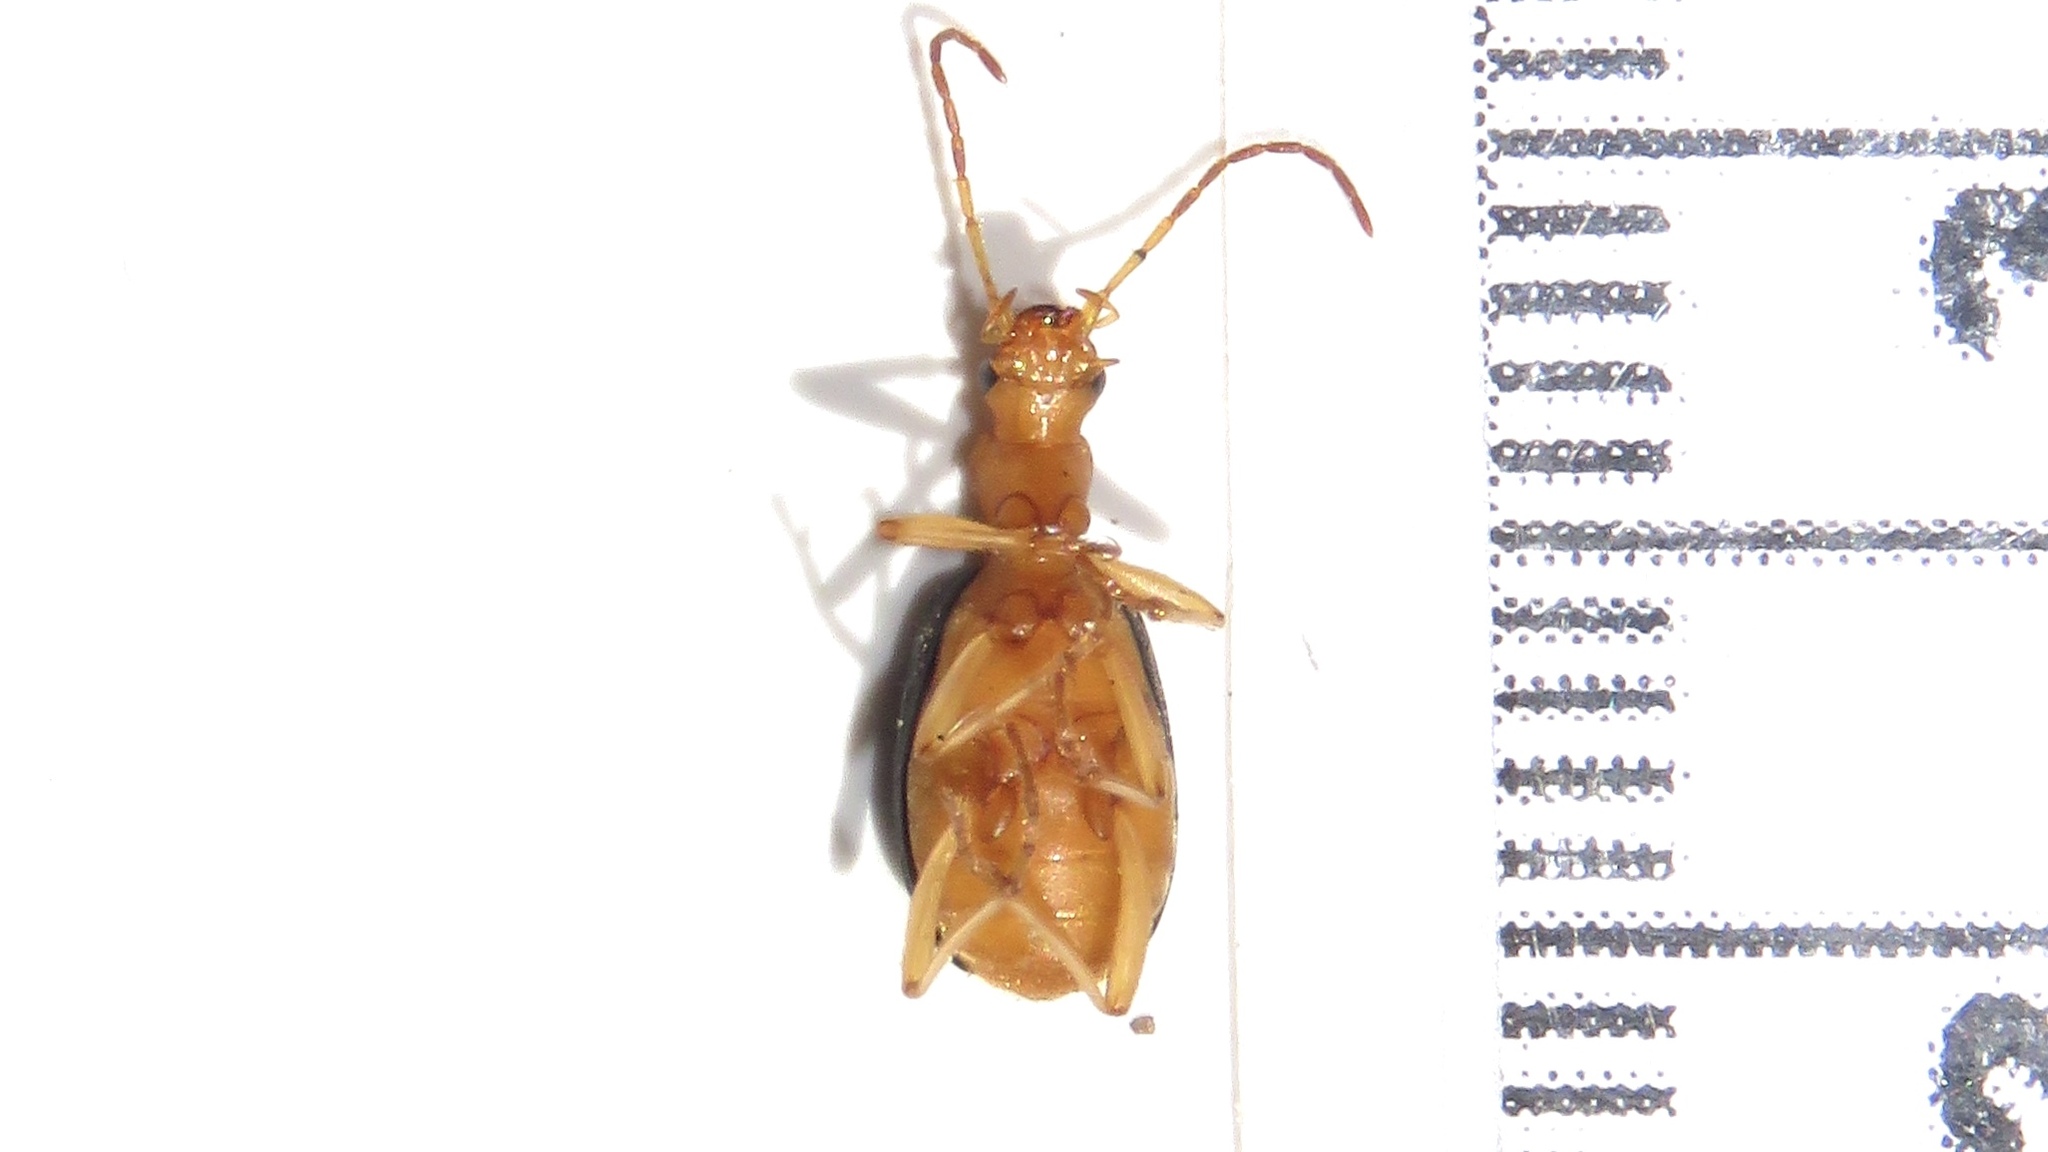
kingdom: Animalia
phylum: Arthropoda
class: Insecta
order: Coleoptera
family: Carabidae
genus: Brachinus
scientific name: Brachinus janthinipennis
